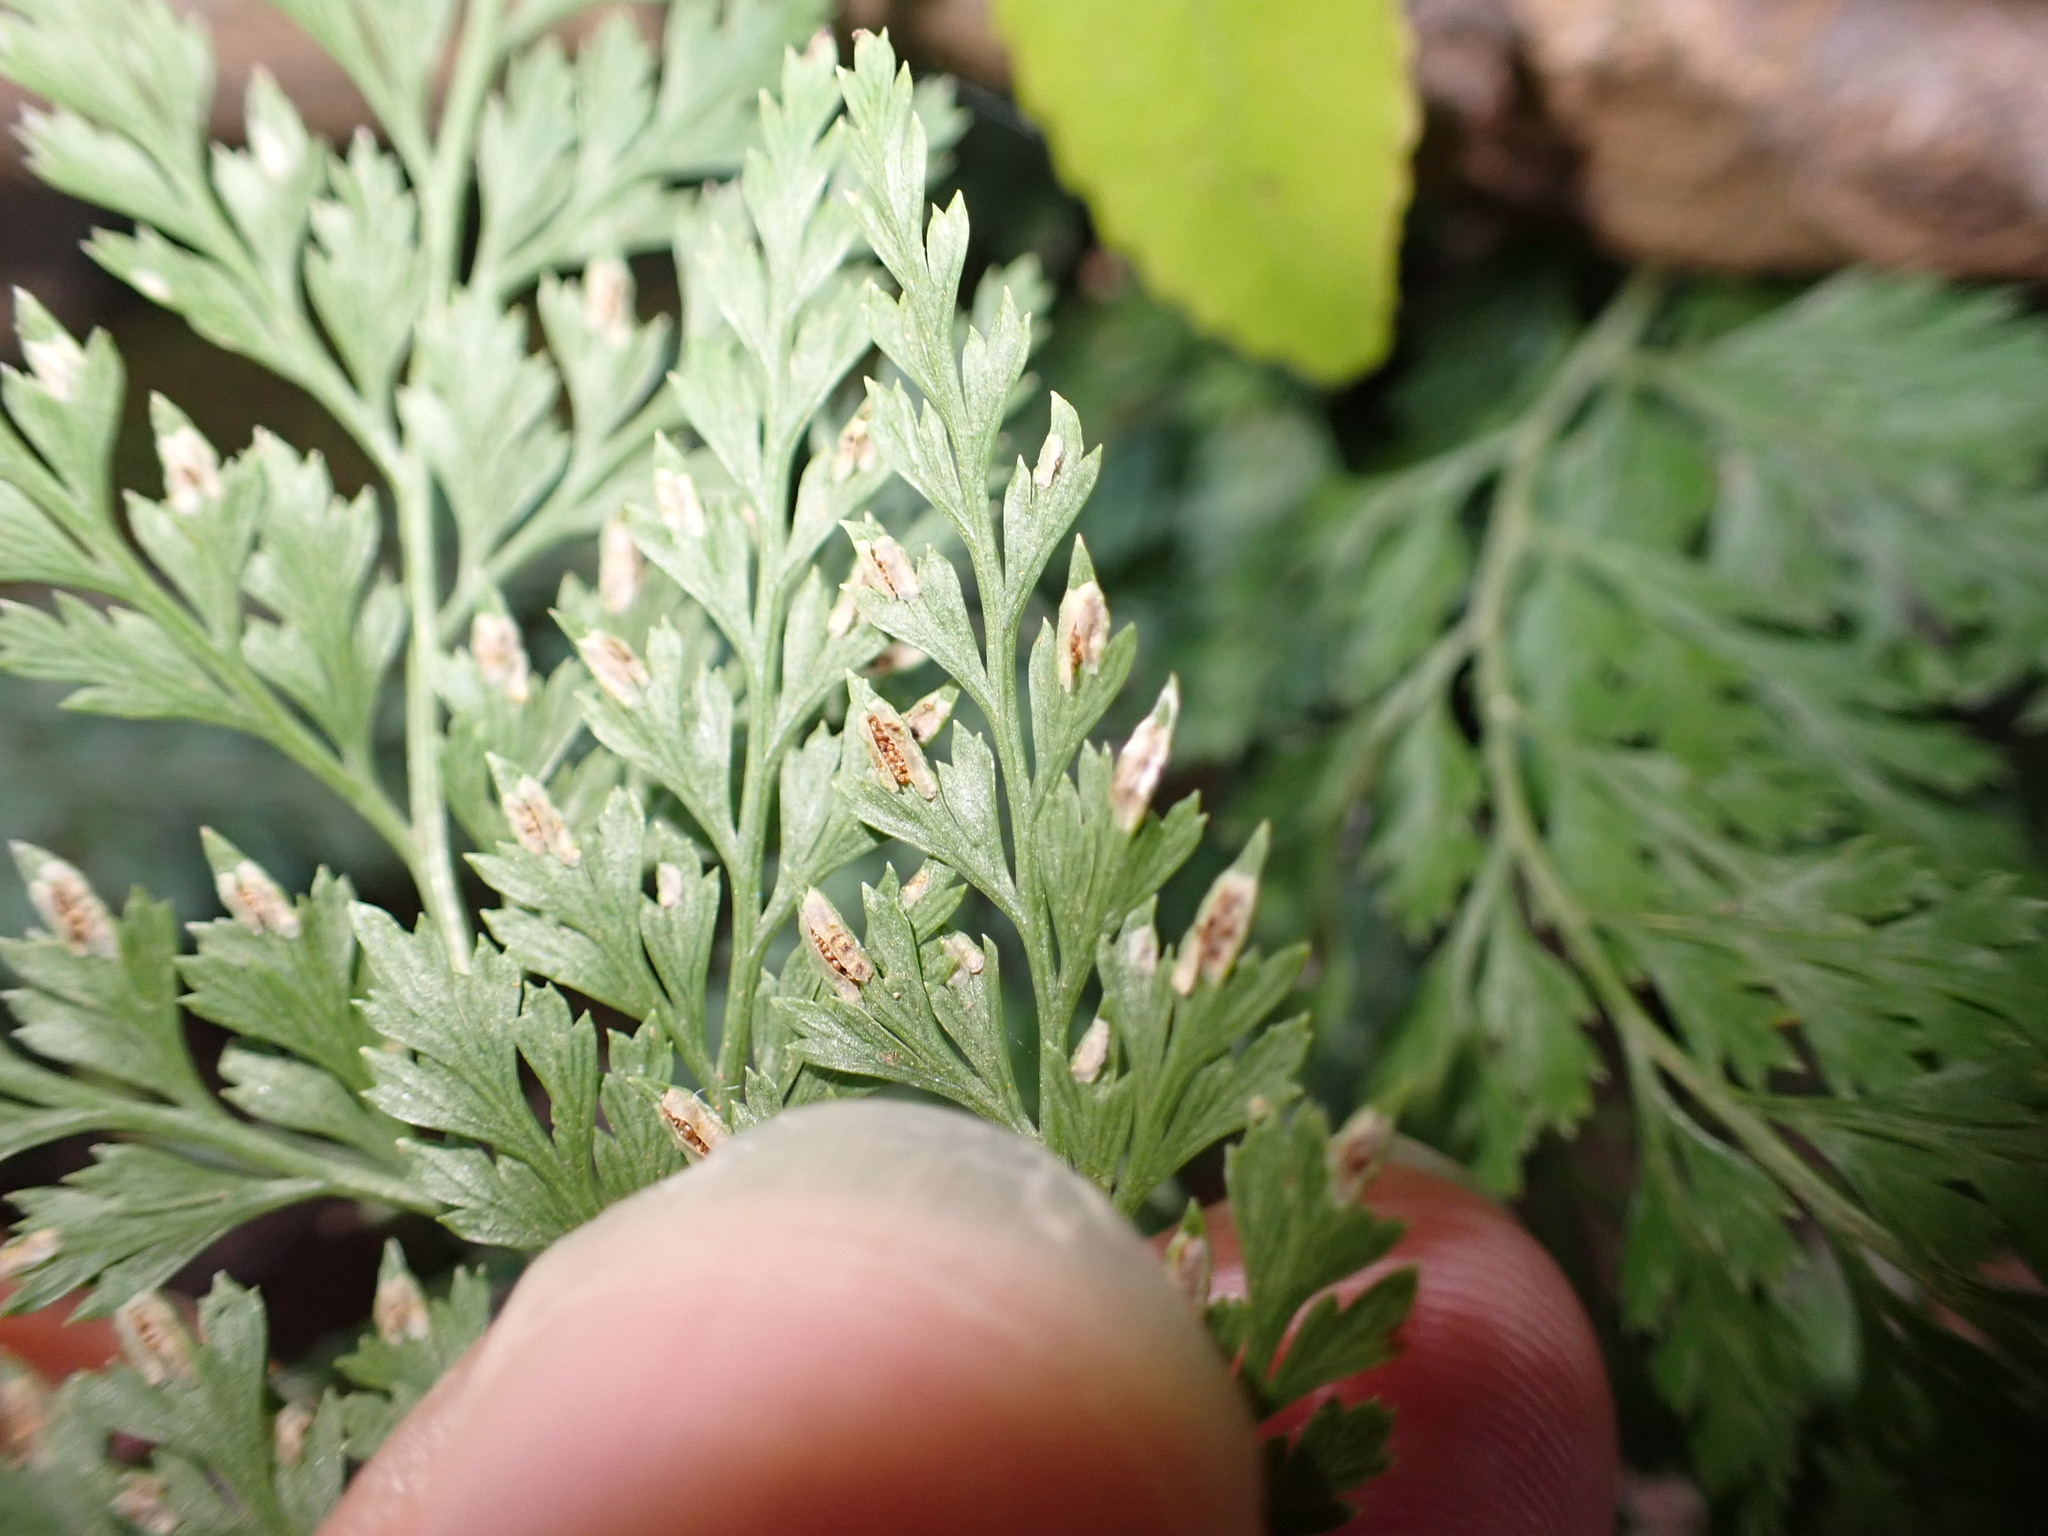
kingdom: Plantae
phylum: Tracheophyta
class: Polypodiopsida
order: Polypodiales
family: Pteridaceae
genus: Onychium
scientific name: Onychium japonicum
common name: Carrot fern
